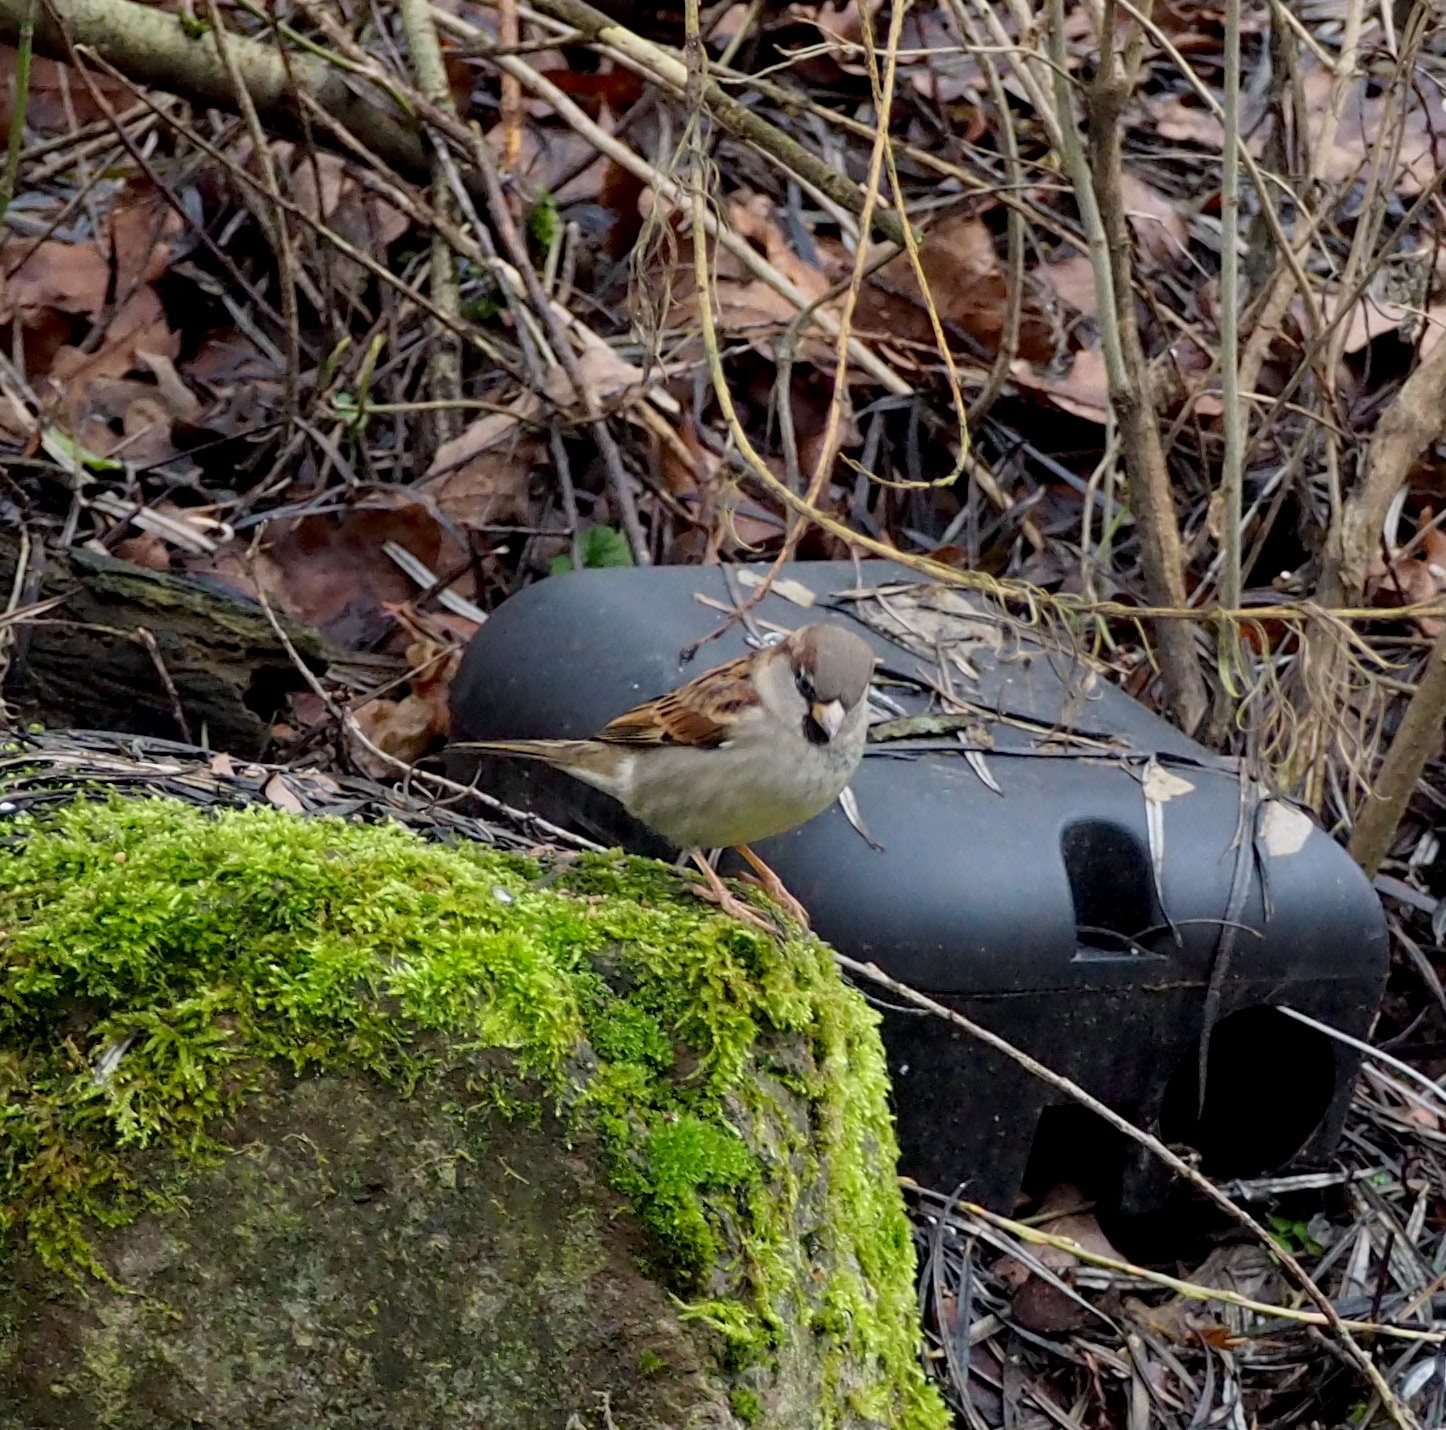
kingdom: Animalia
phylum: Chordata
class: Aves
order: Passeriformes
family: Passeridae
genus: Passer
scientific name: Passer domesticus
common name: House sparrow
